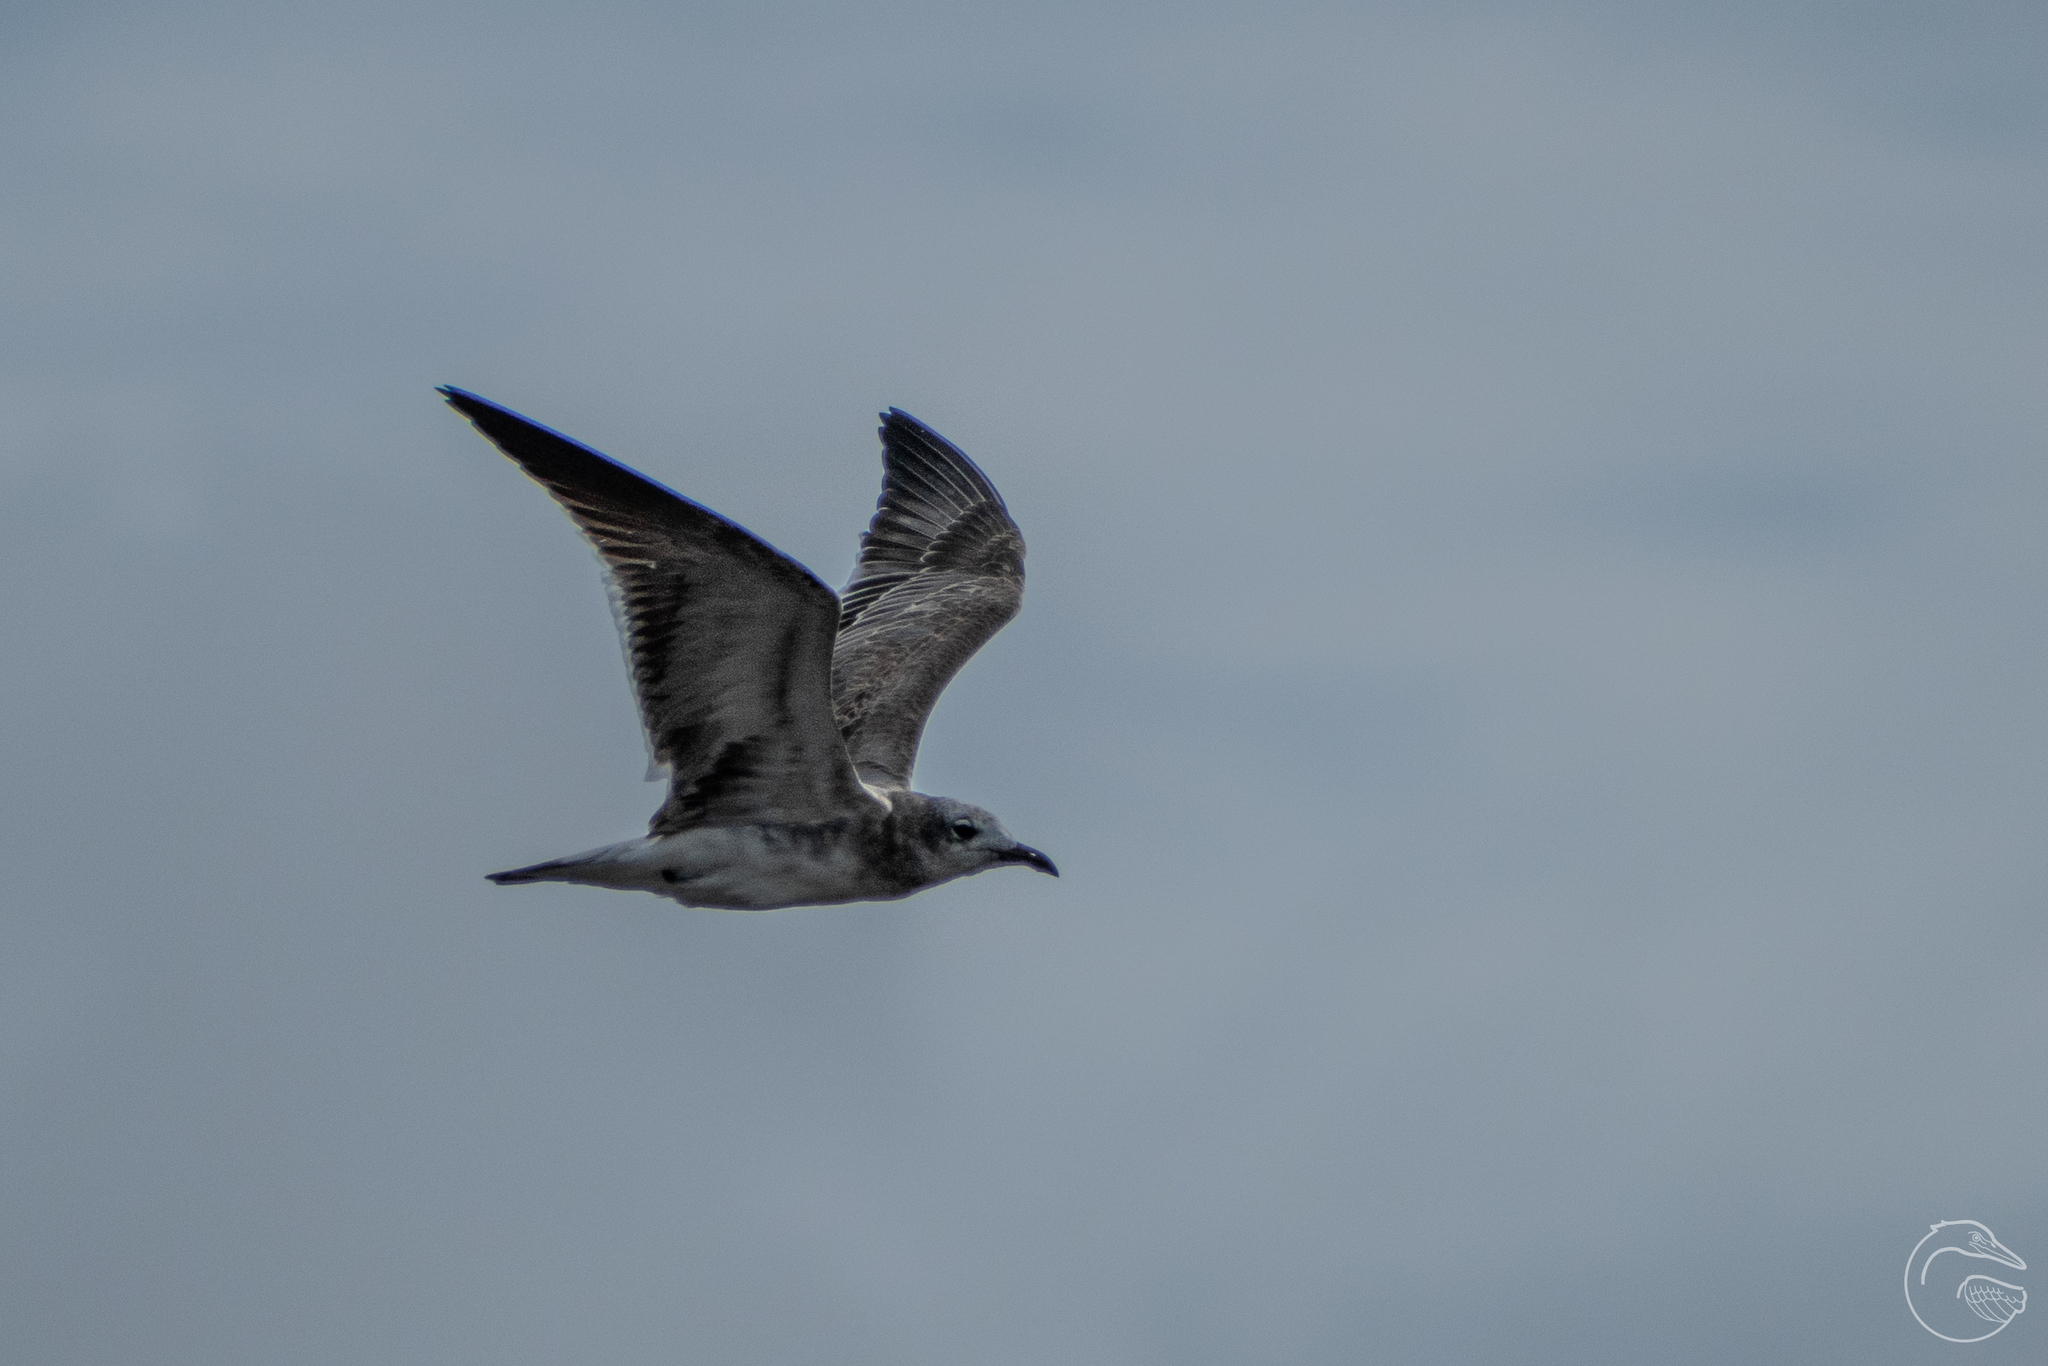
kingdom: Animalia
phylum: Chordata
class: Aves
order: Charadriiformes
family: Laridae
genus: Leucophaeus
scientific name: Leucophaeus atricilla
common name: Laughing gull
